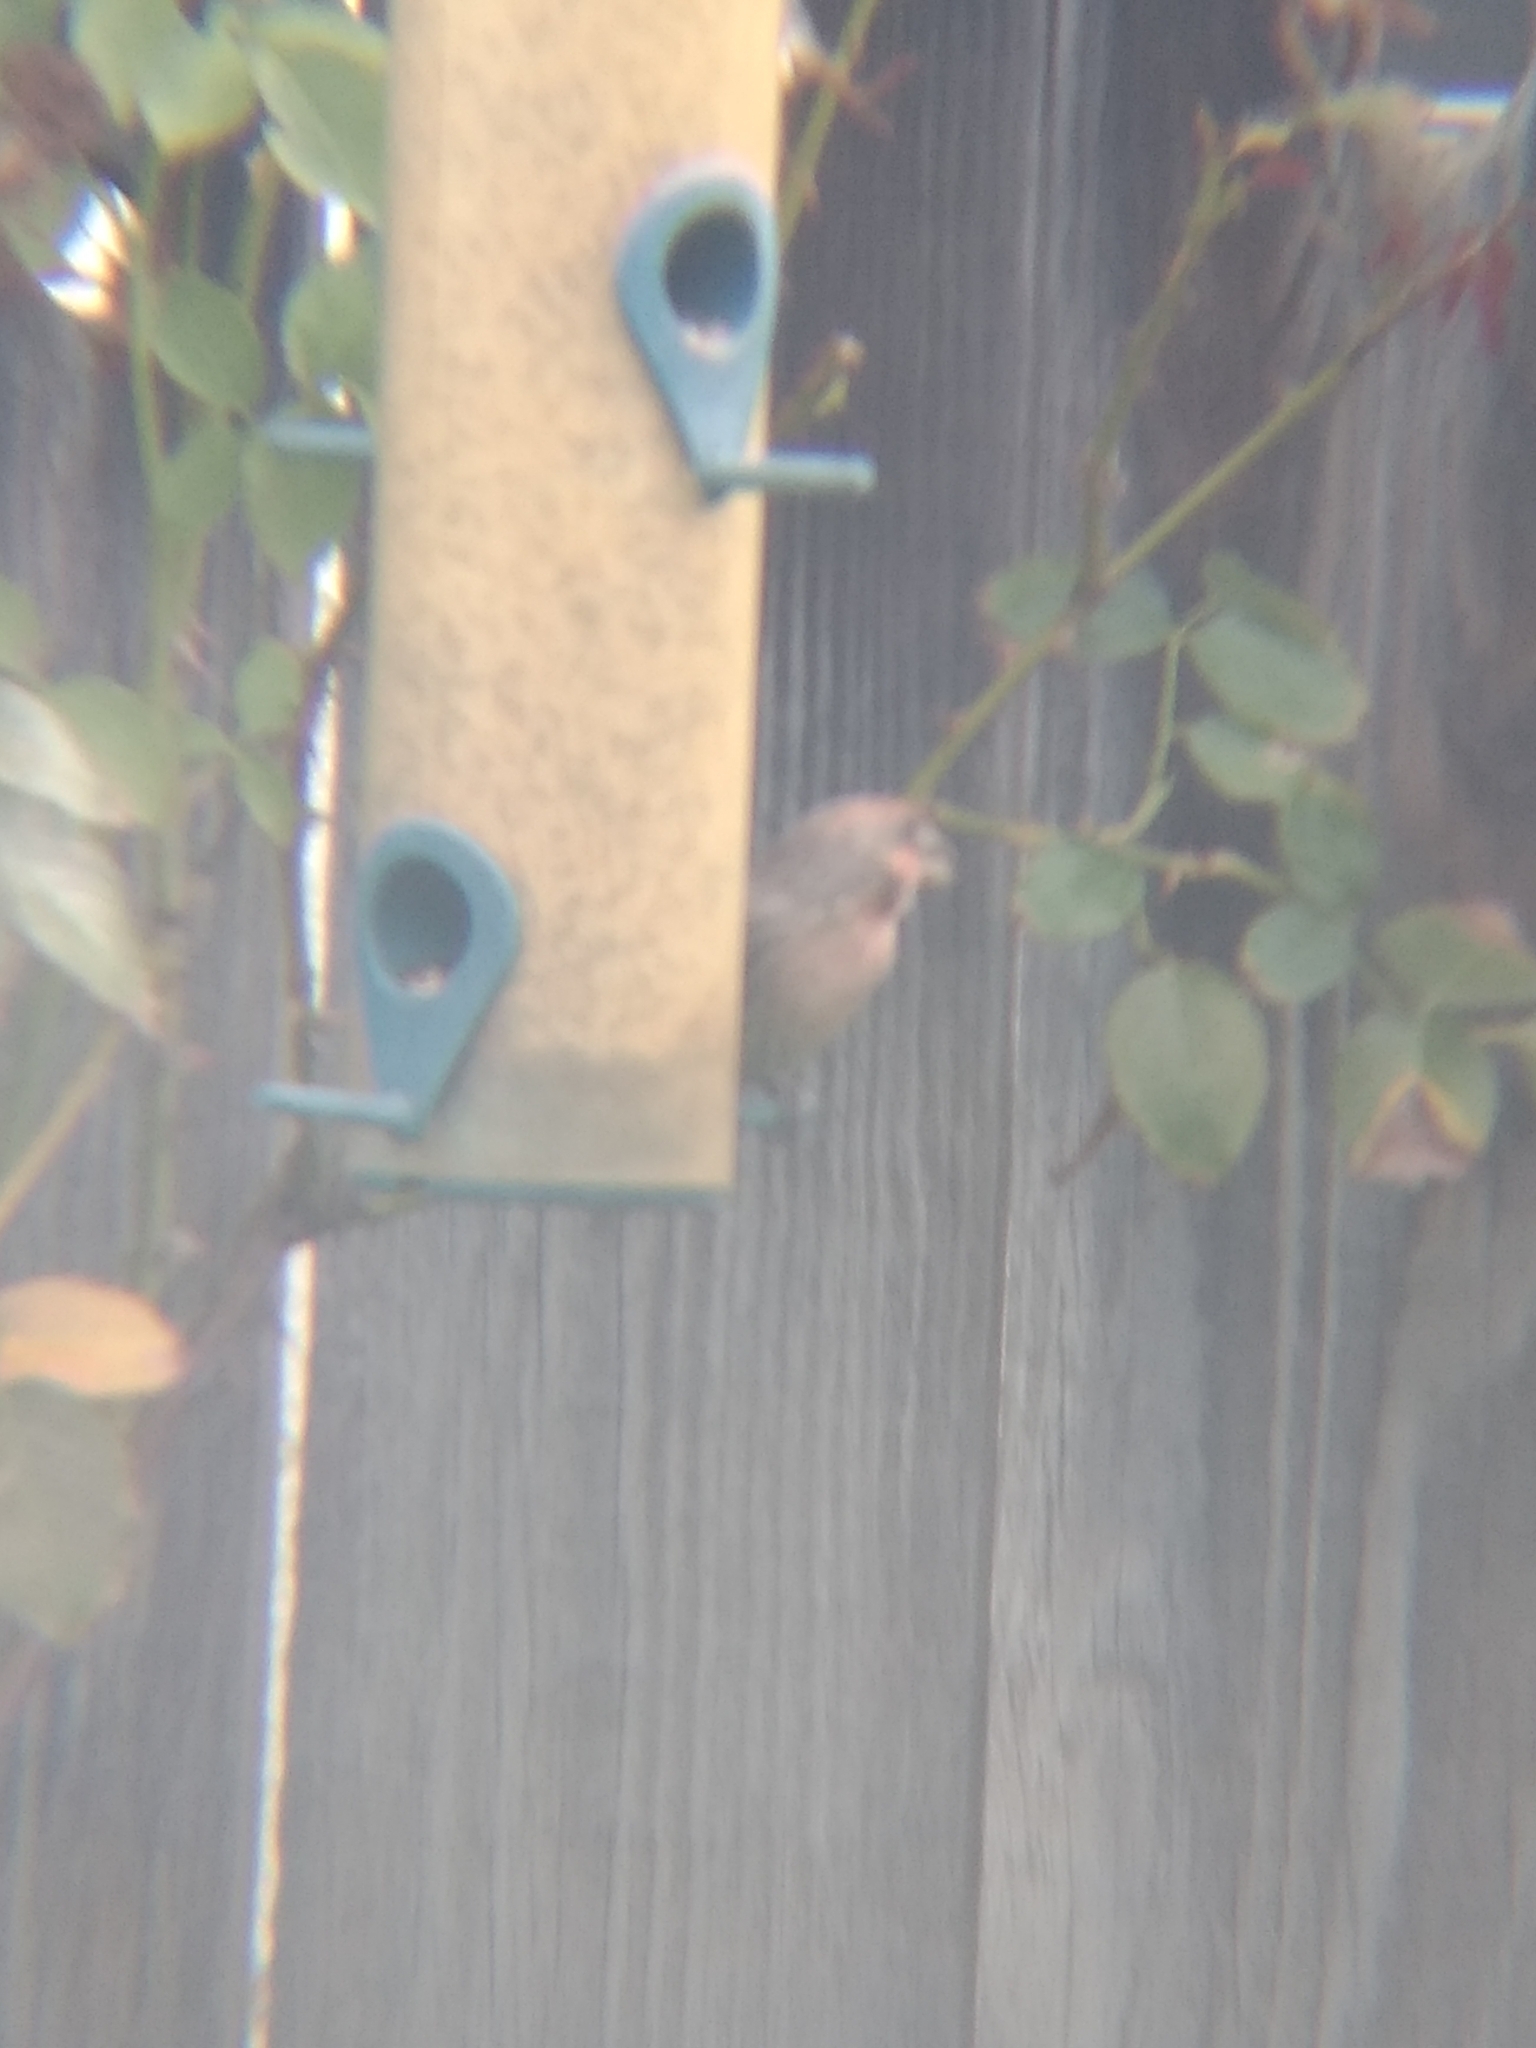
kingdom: Animalia
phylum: Chordata
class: Aves
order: Passeriformes
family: Fringillidae
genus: Haemorhous
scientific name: Haemorhous mexicanus
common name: House finch
